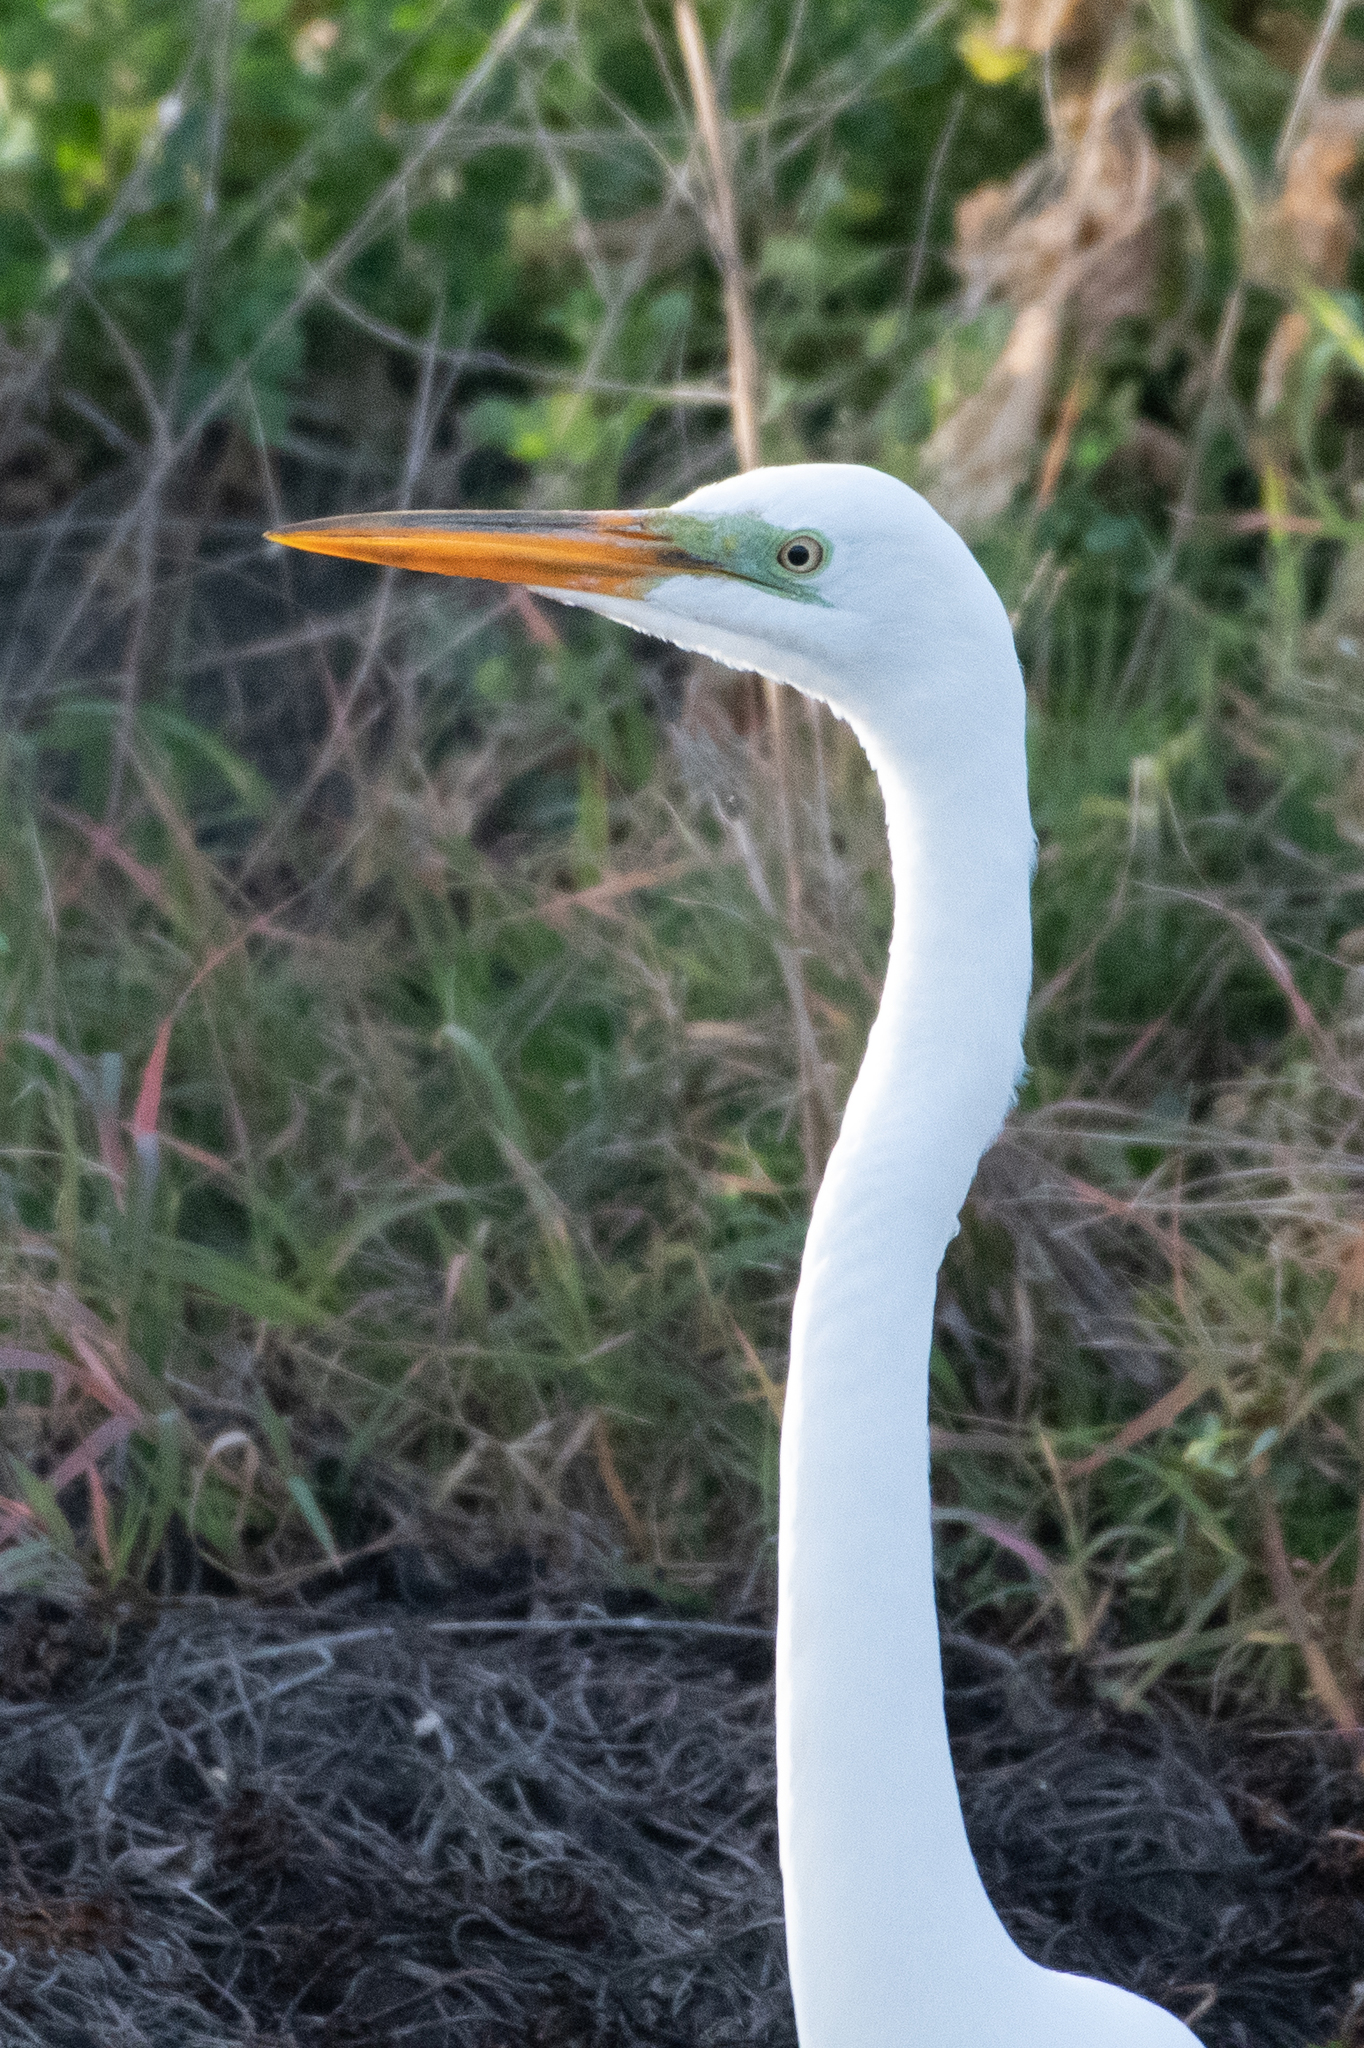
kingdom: Animalia
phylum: Chordata
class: Aves
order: Pelecaniformes
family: Ardeidae
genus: Ardea
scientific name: Ardea alba
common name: Great egret
